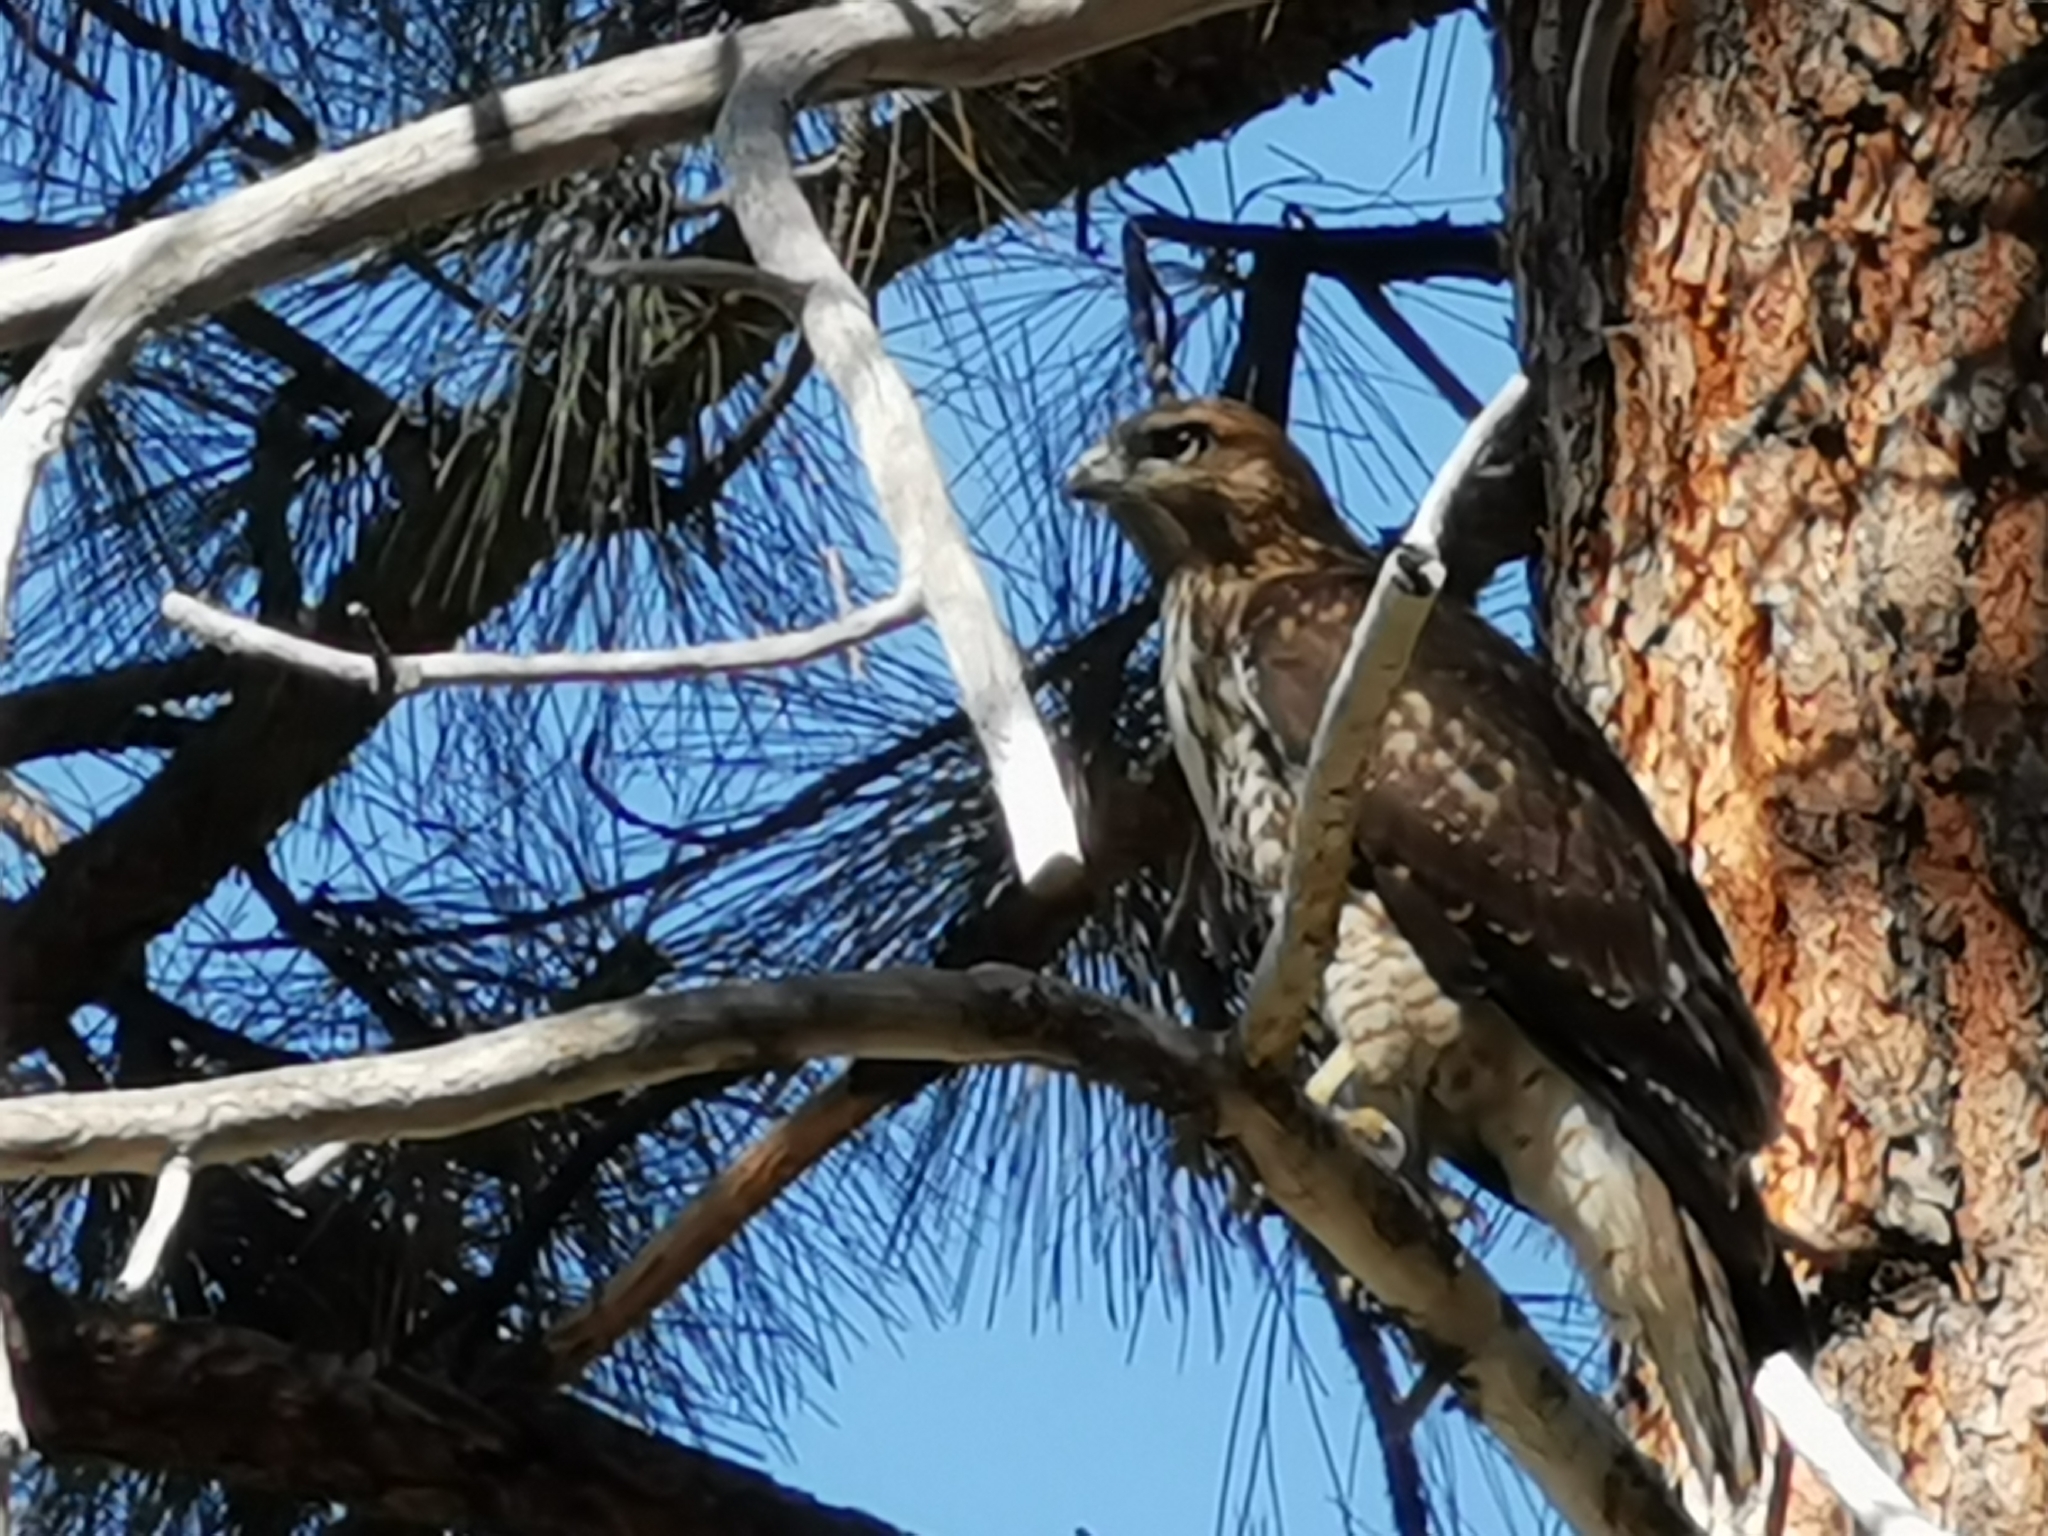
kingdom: Animalia
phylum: Chordata
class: Aves
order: Accipitriformes
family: Accipitridae
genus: Buteo
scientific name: Buteo jamaicensis
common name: Red-tailed hawk
